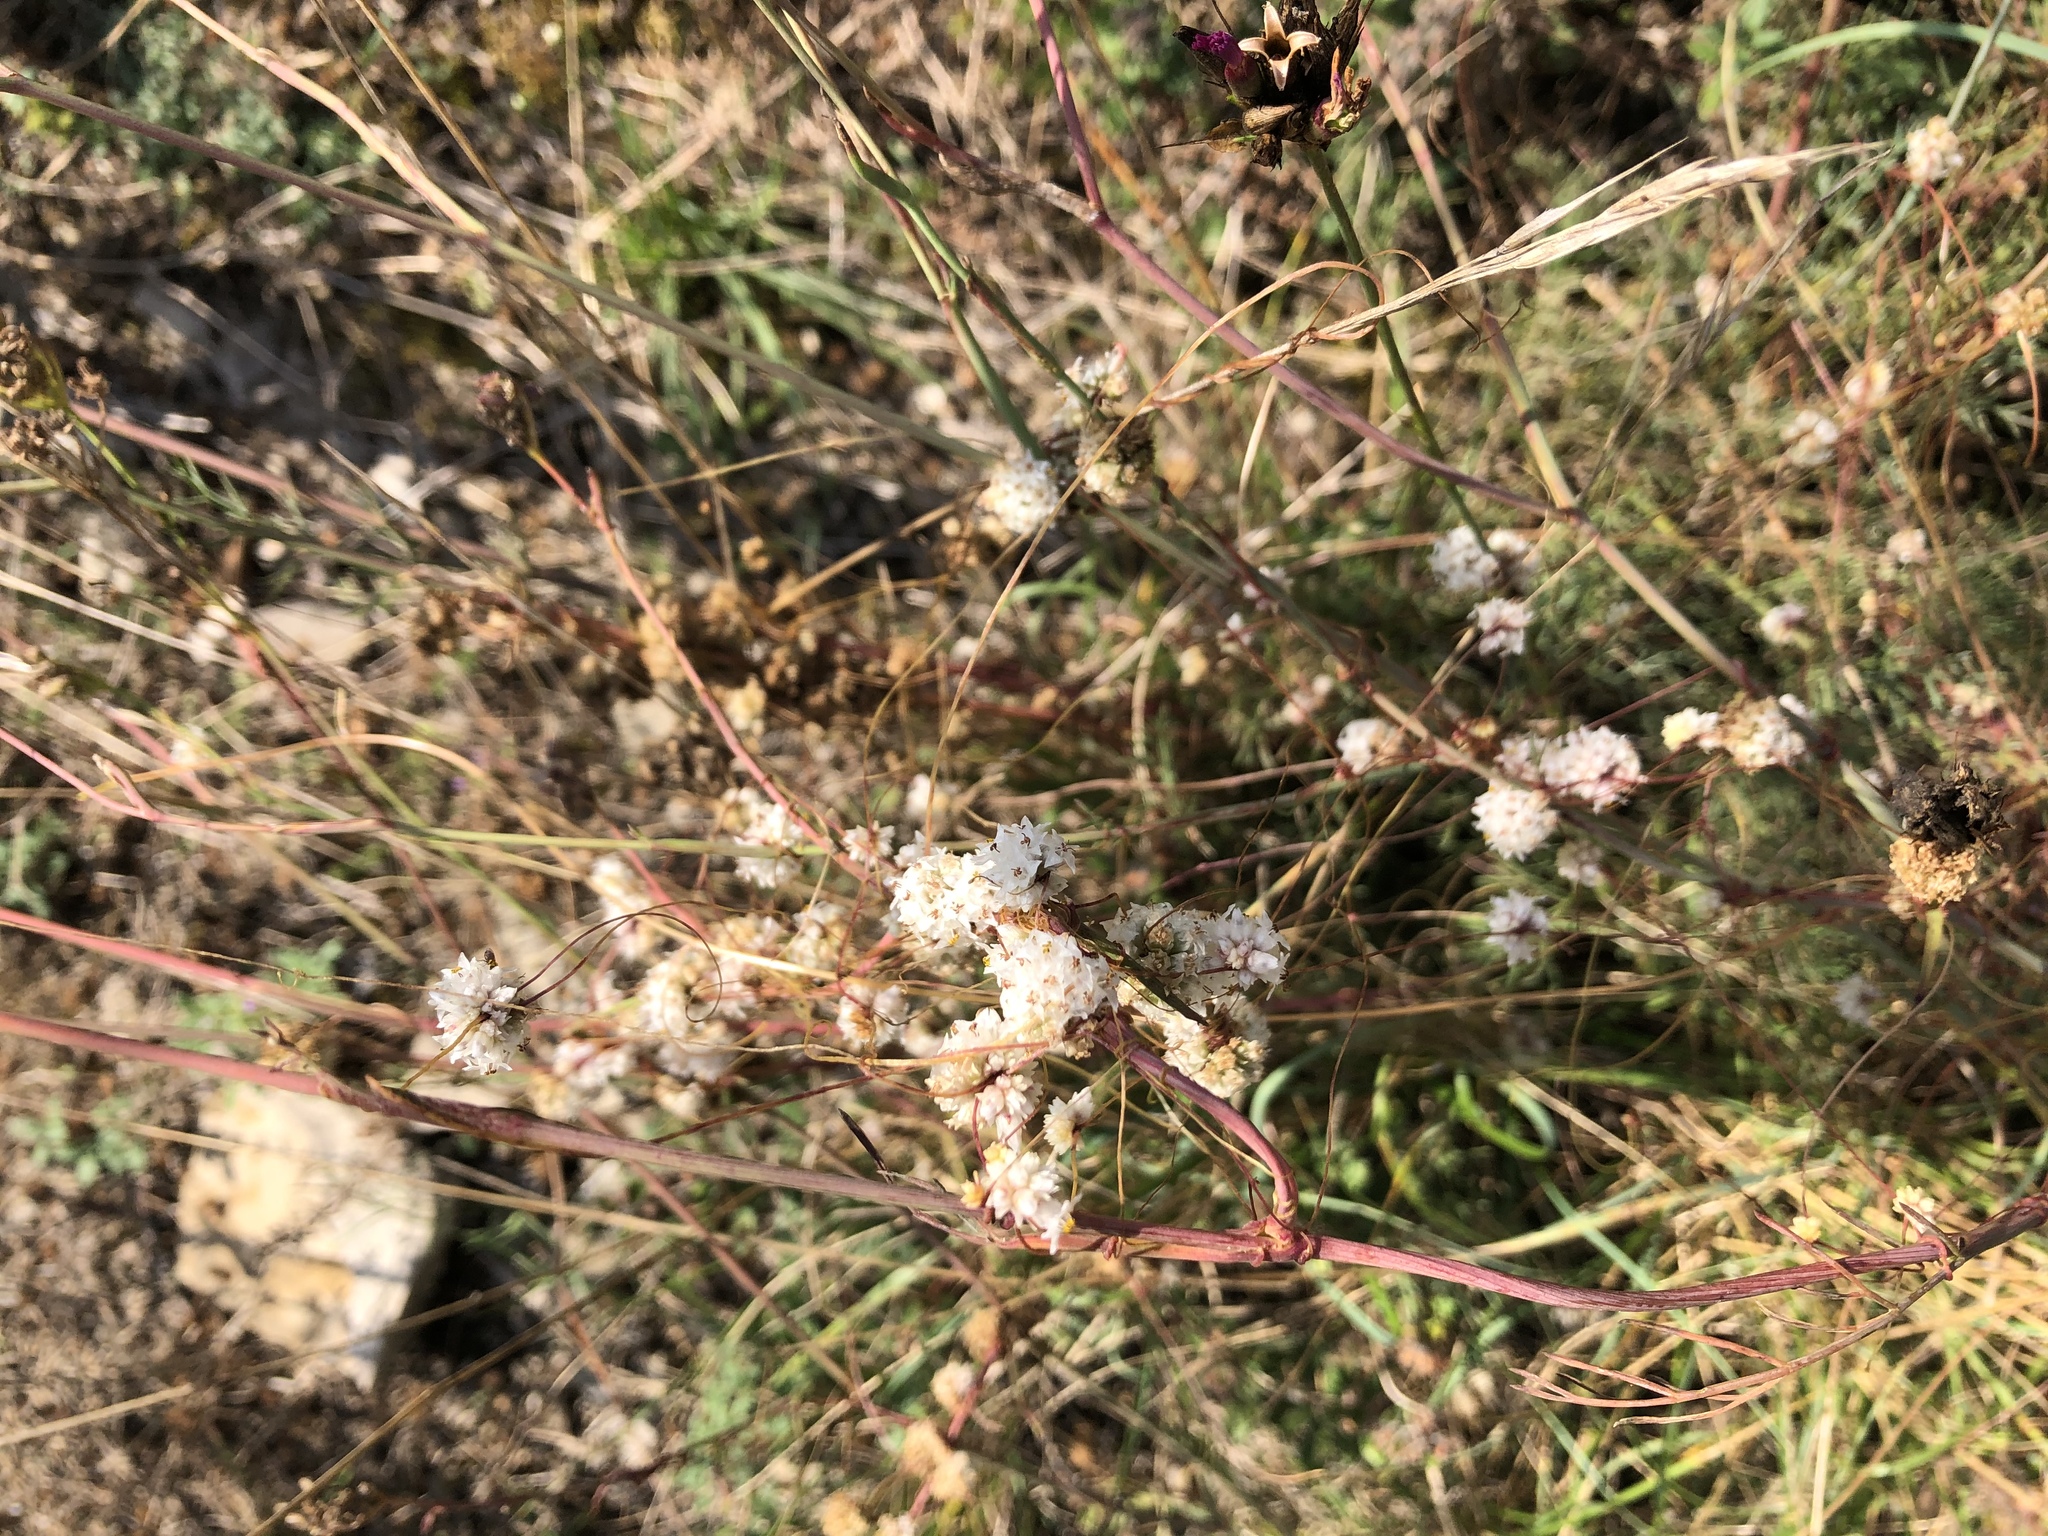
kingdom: Plantae
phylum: Tracheophyta
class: Magnoliopsida
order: Solanales
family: Convolvulaceae
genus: Cuscuta
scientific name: Cuscuta epithymum
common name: Clover dodder
